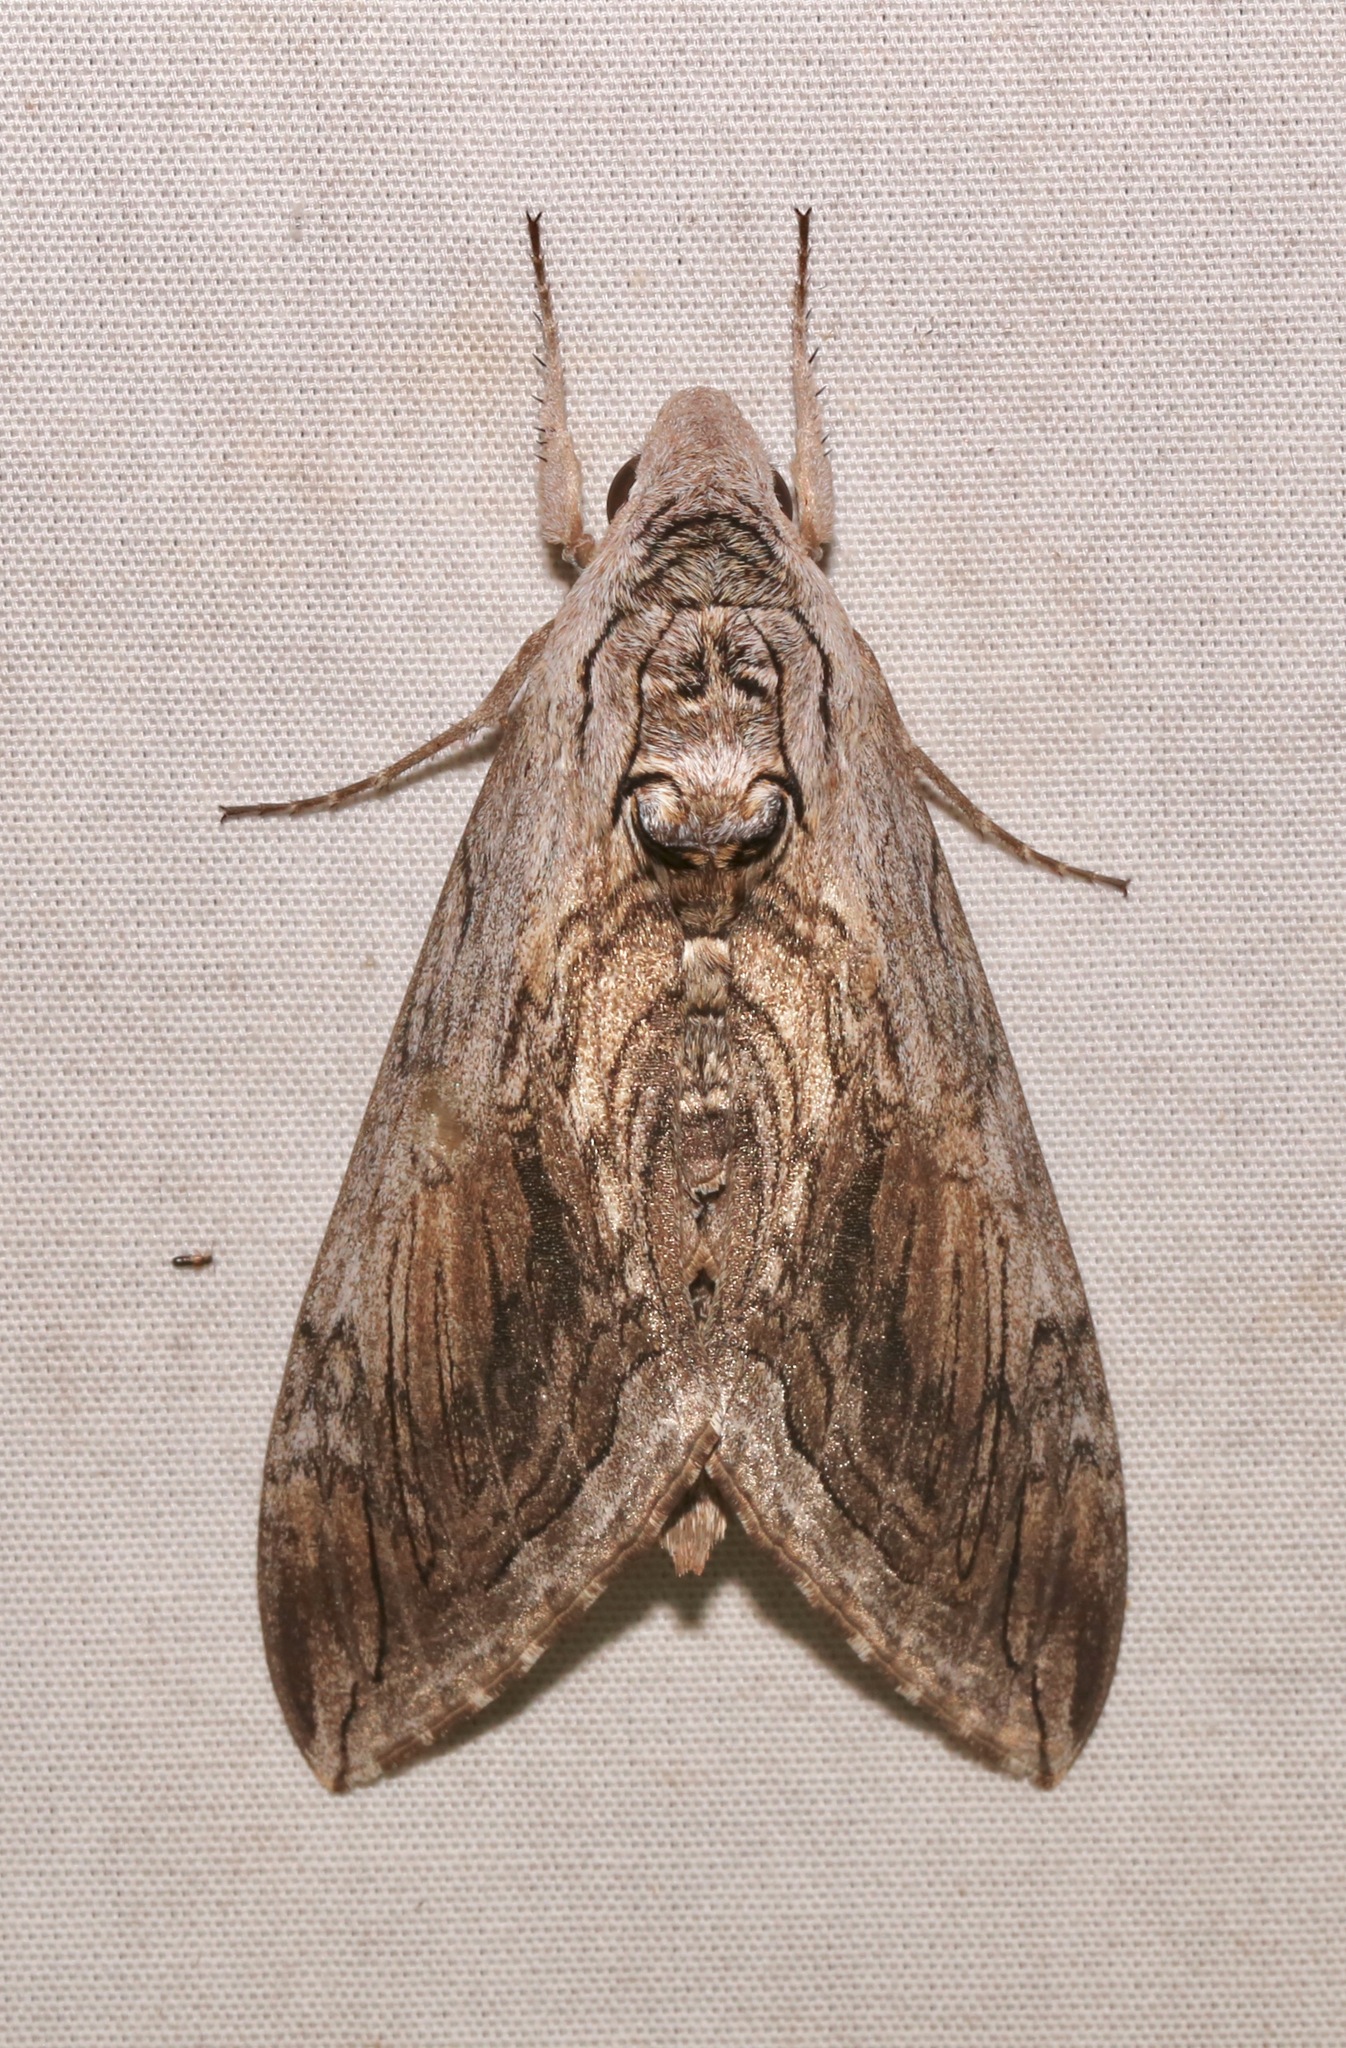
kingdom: Animalia
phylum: Arthropoda
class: Insecta
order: Lepidoptera
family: Sphingidae
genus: Manduca
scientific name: Manduca quinquemaculatus
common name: Five-spotted hawk-moth
